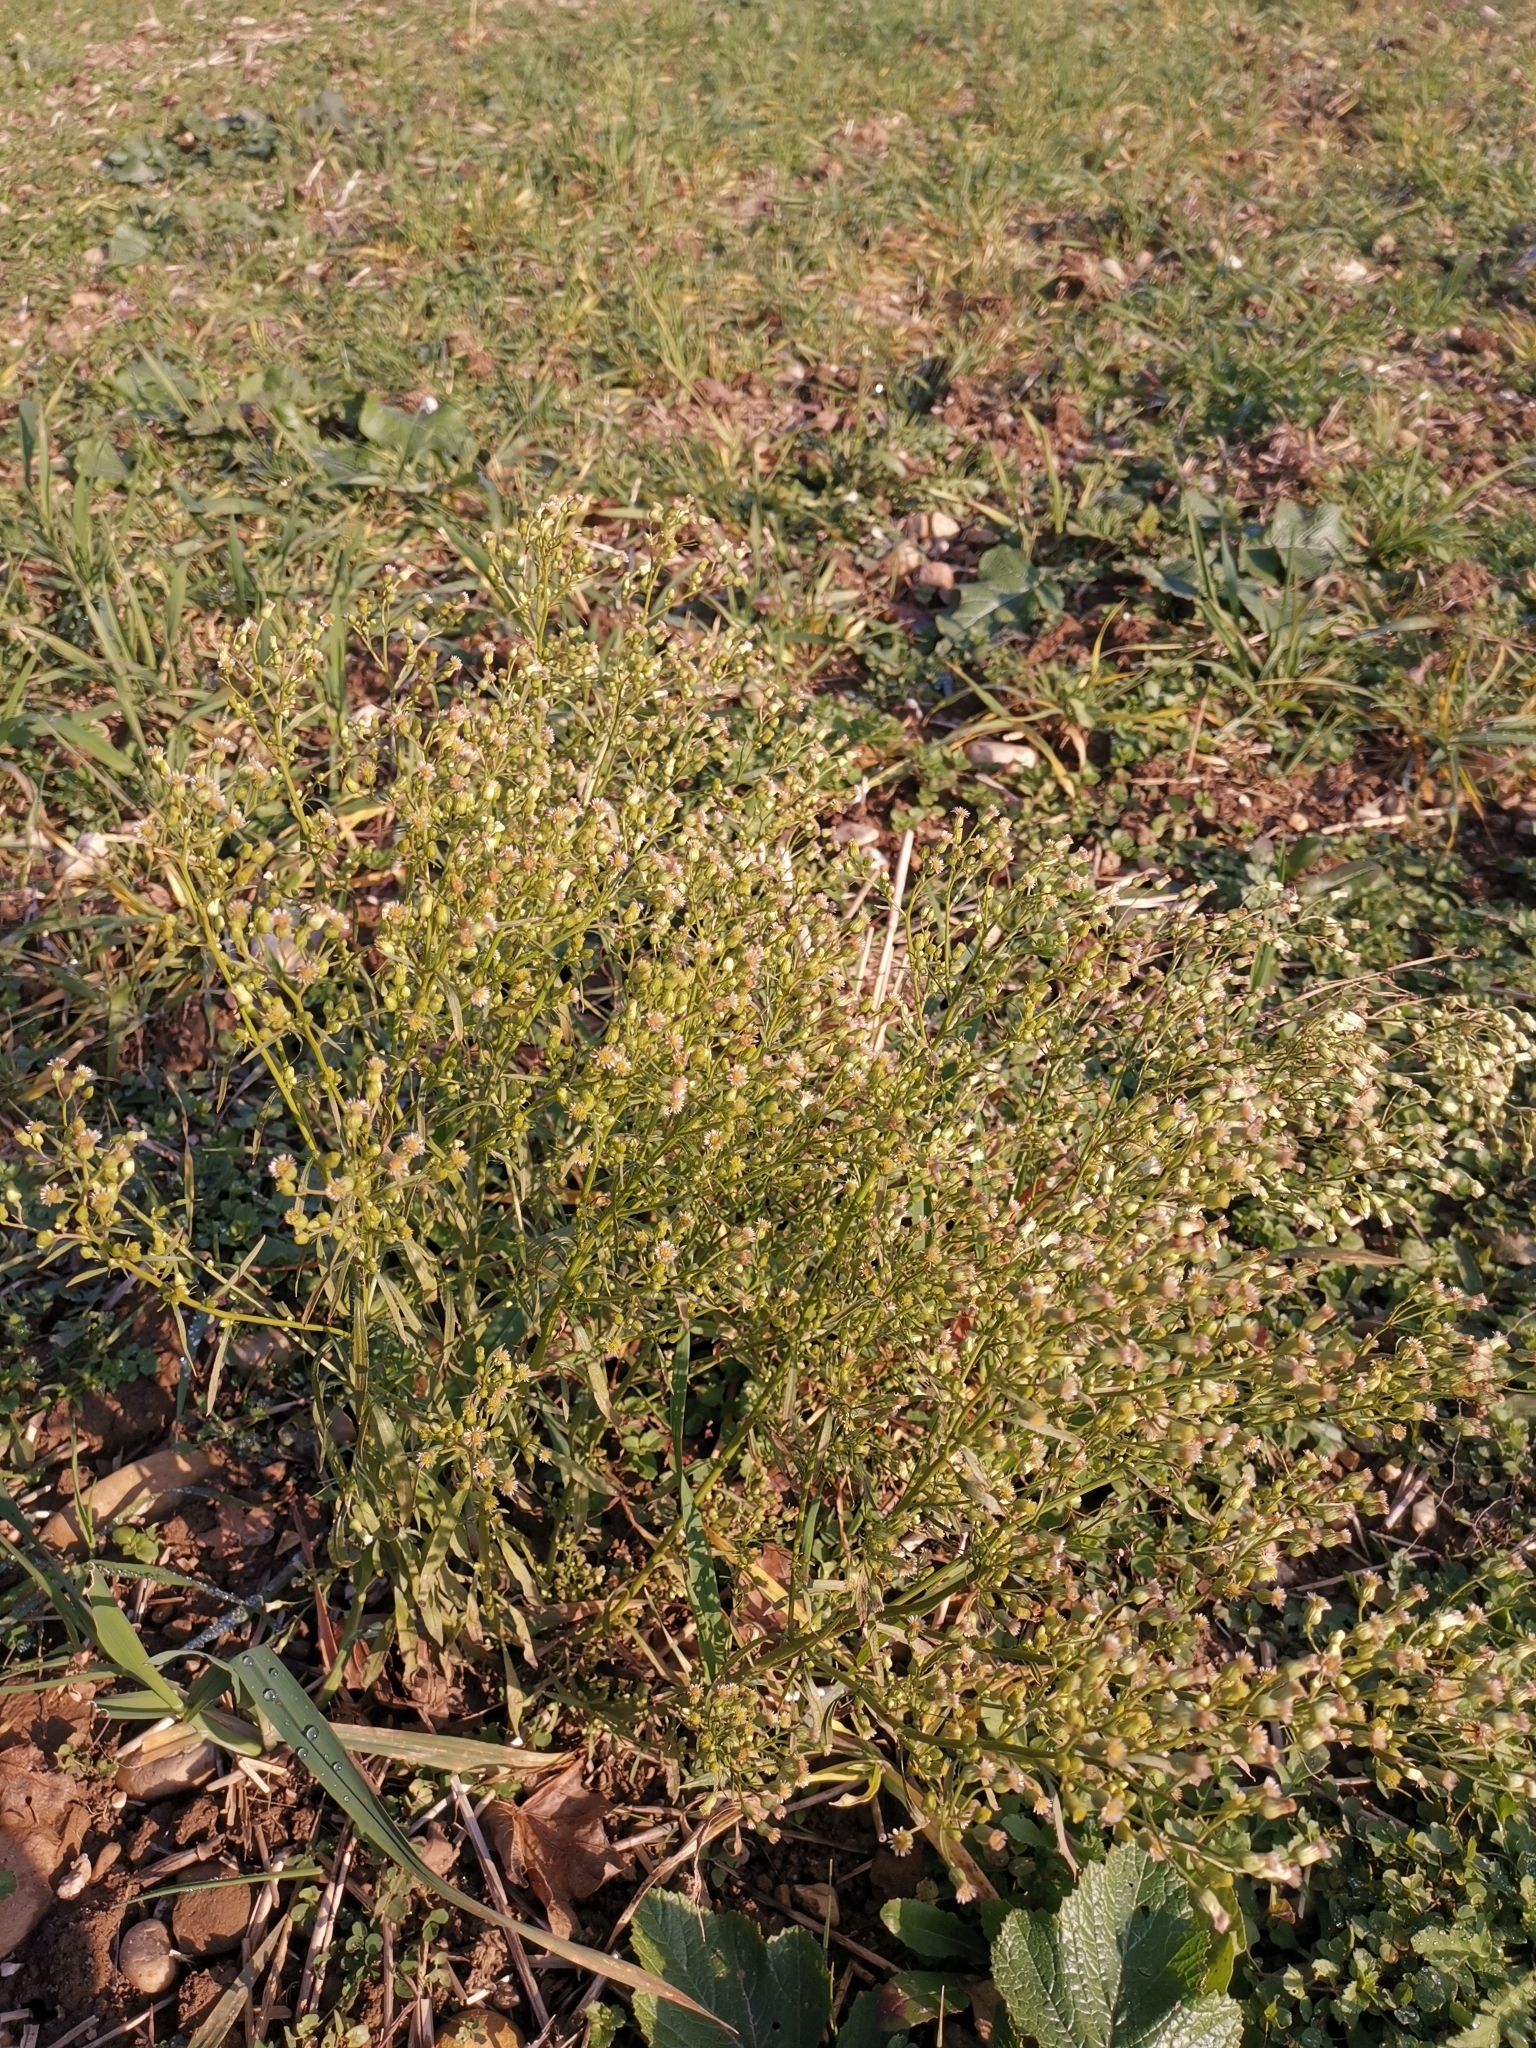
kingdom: Plantae
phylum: Tracheophyta
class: Magnoliopsida
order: Asterales
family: Asteraceae
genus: Erigeron
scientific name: Erigeron canadensis
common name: Canadian fleabane
